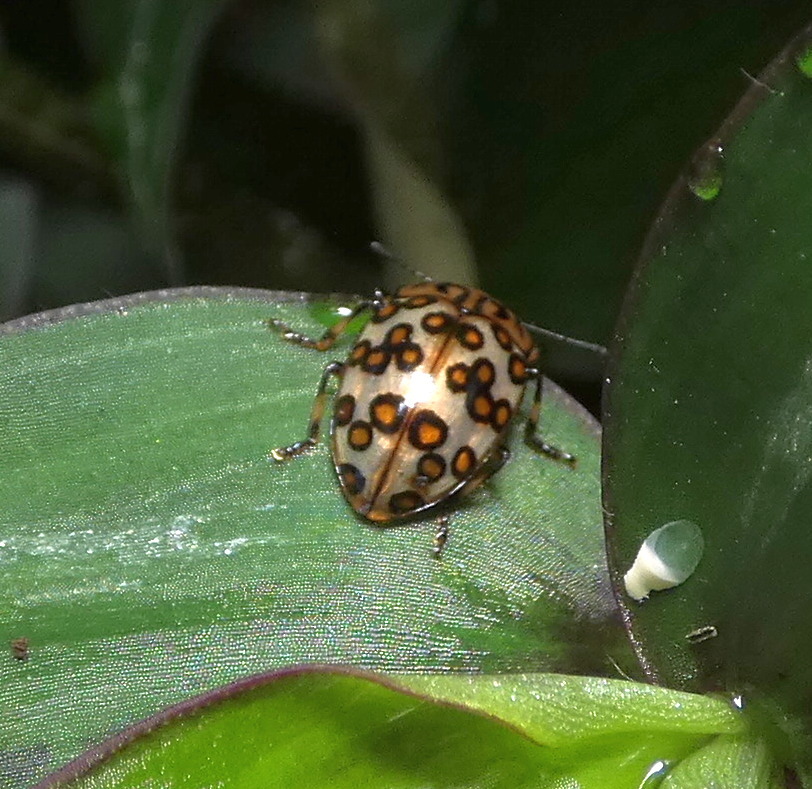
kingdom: Animalia
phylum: Arthropoda
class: Insecta
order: Coleoptera
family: Erotylidae
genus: Iphiclus
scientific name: Iphiclus
